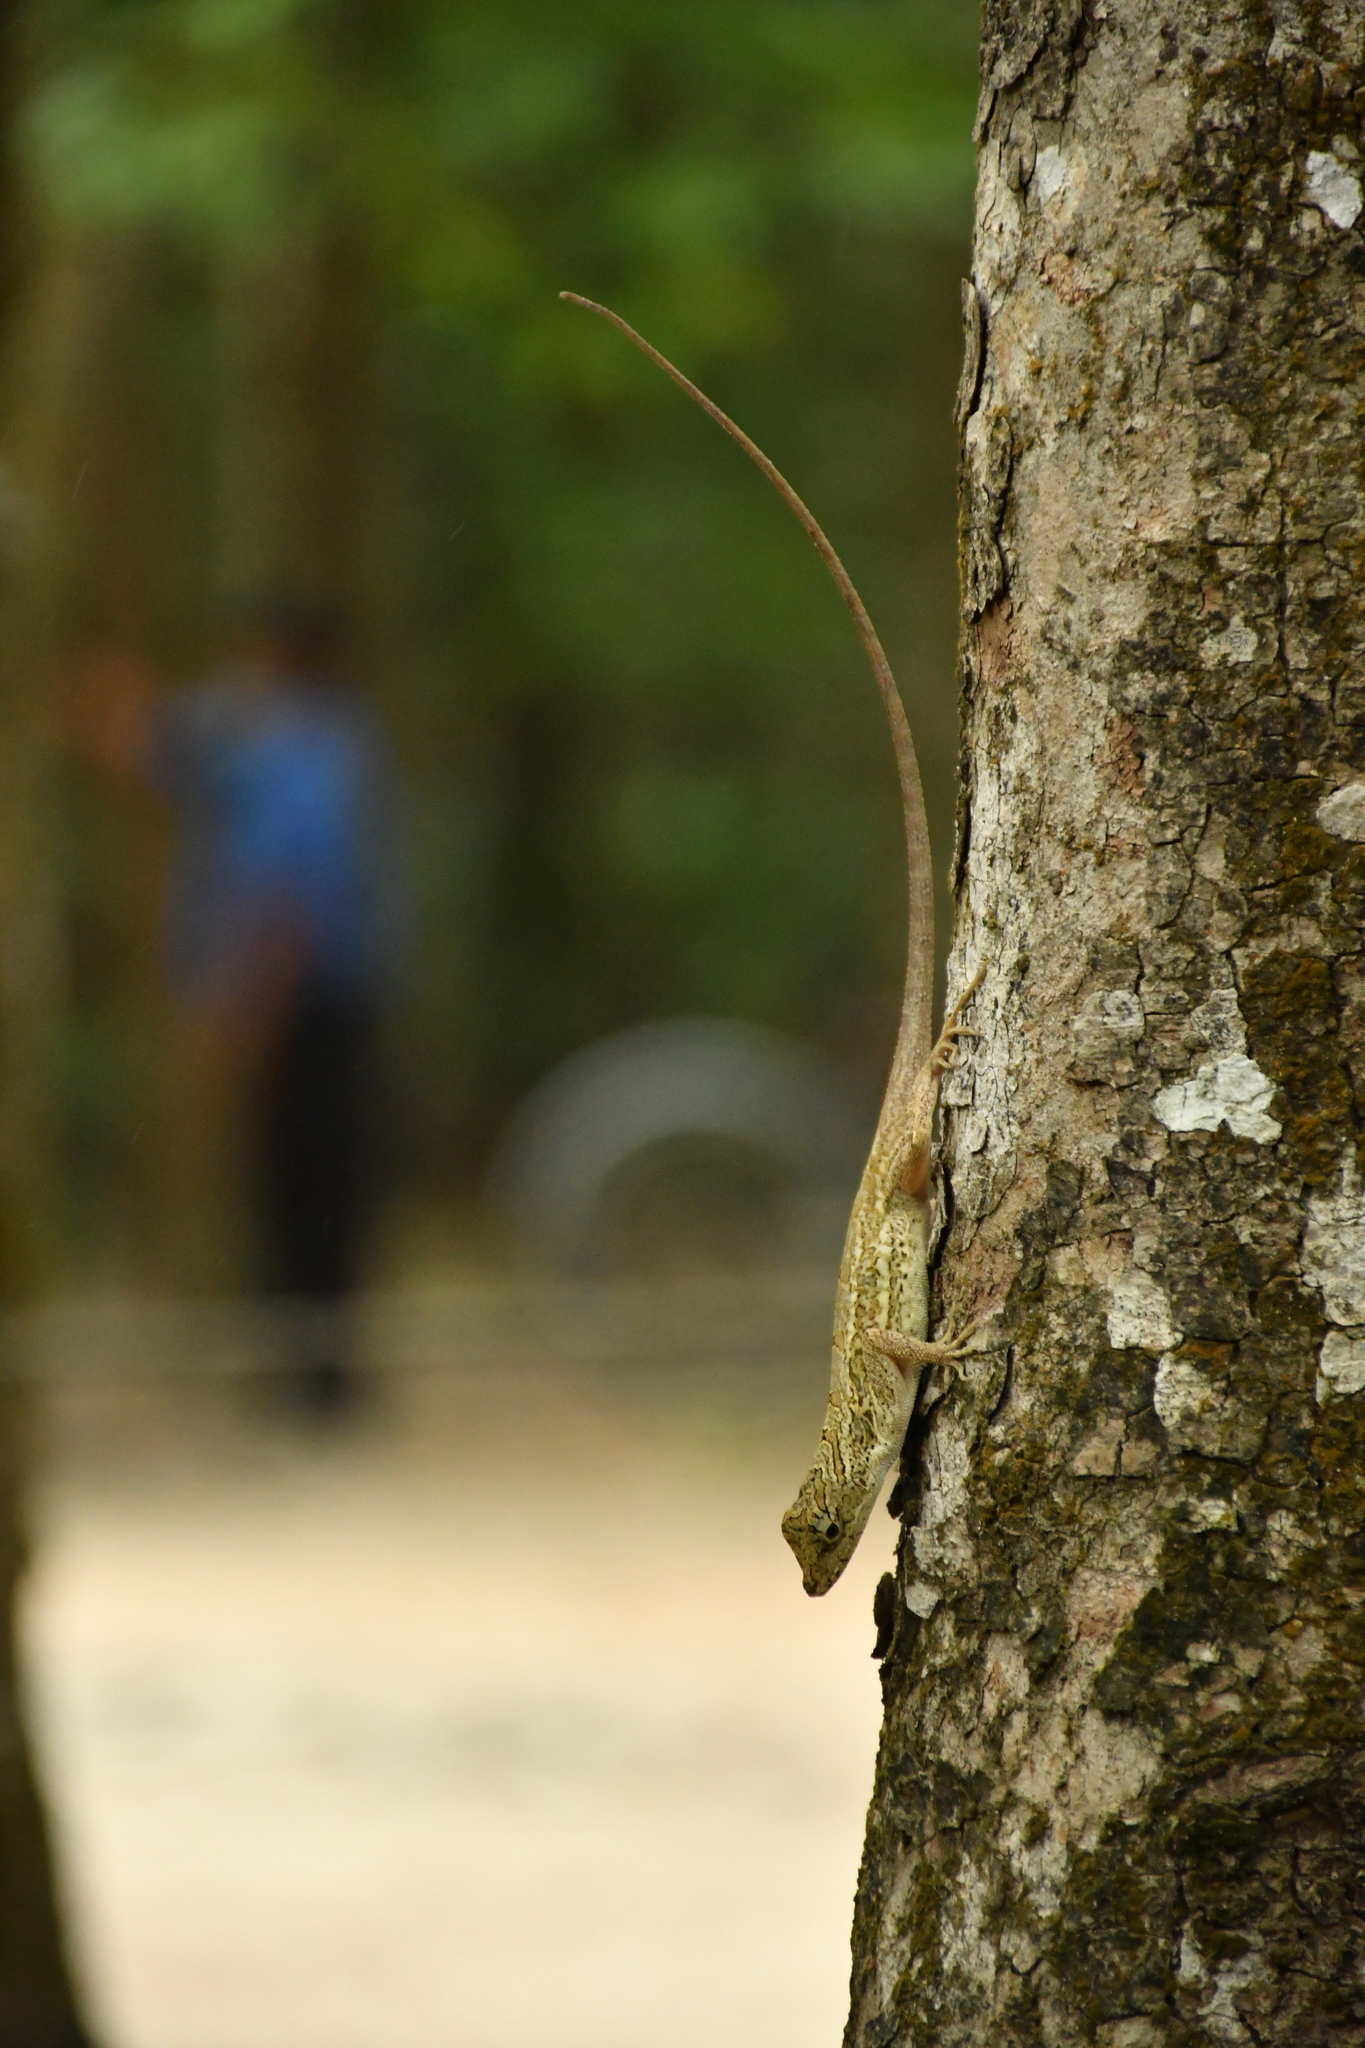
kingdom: Animalia
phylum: Chordata
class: Squamata
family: Dactyloidae
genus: Anolis
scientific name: Anolis lemurinus
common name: Ghost anole
